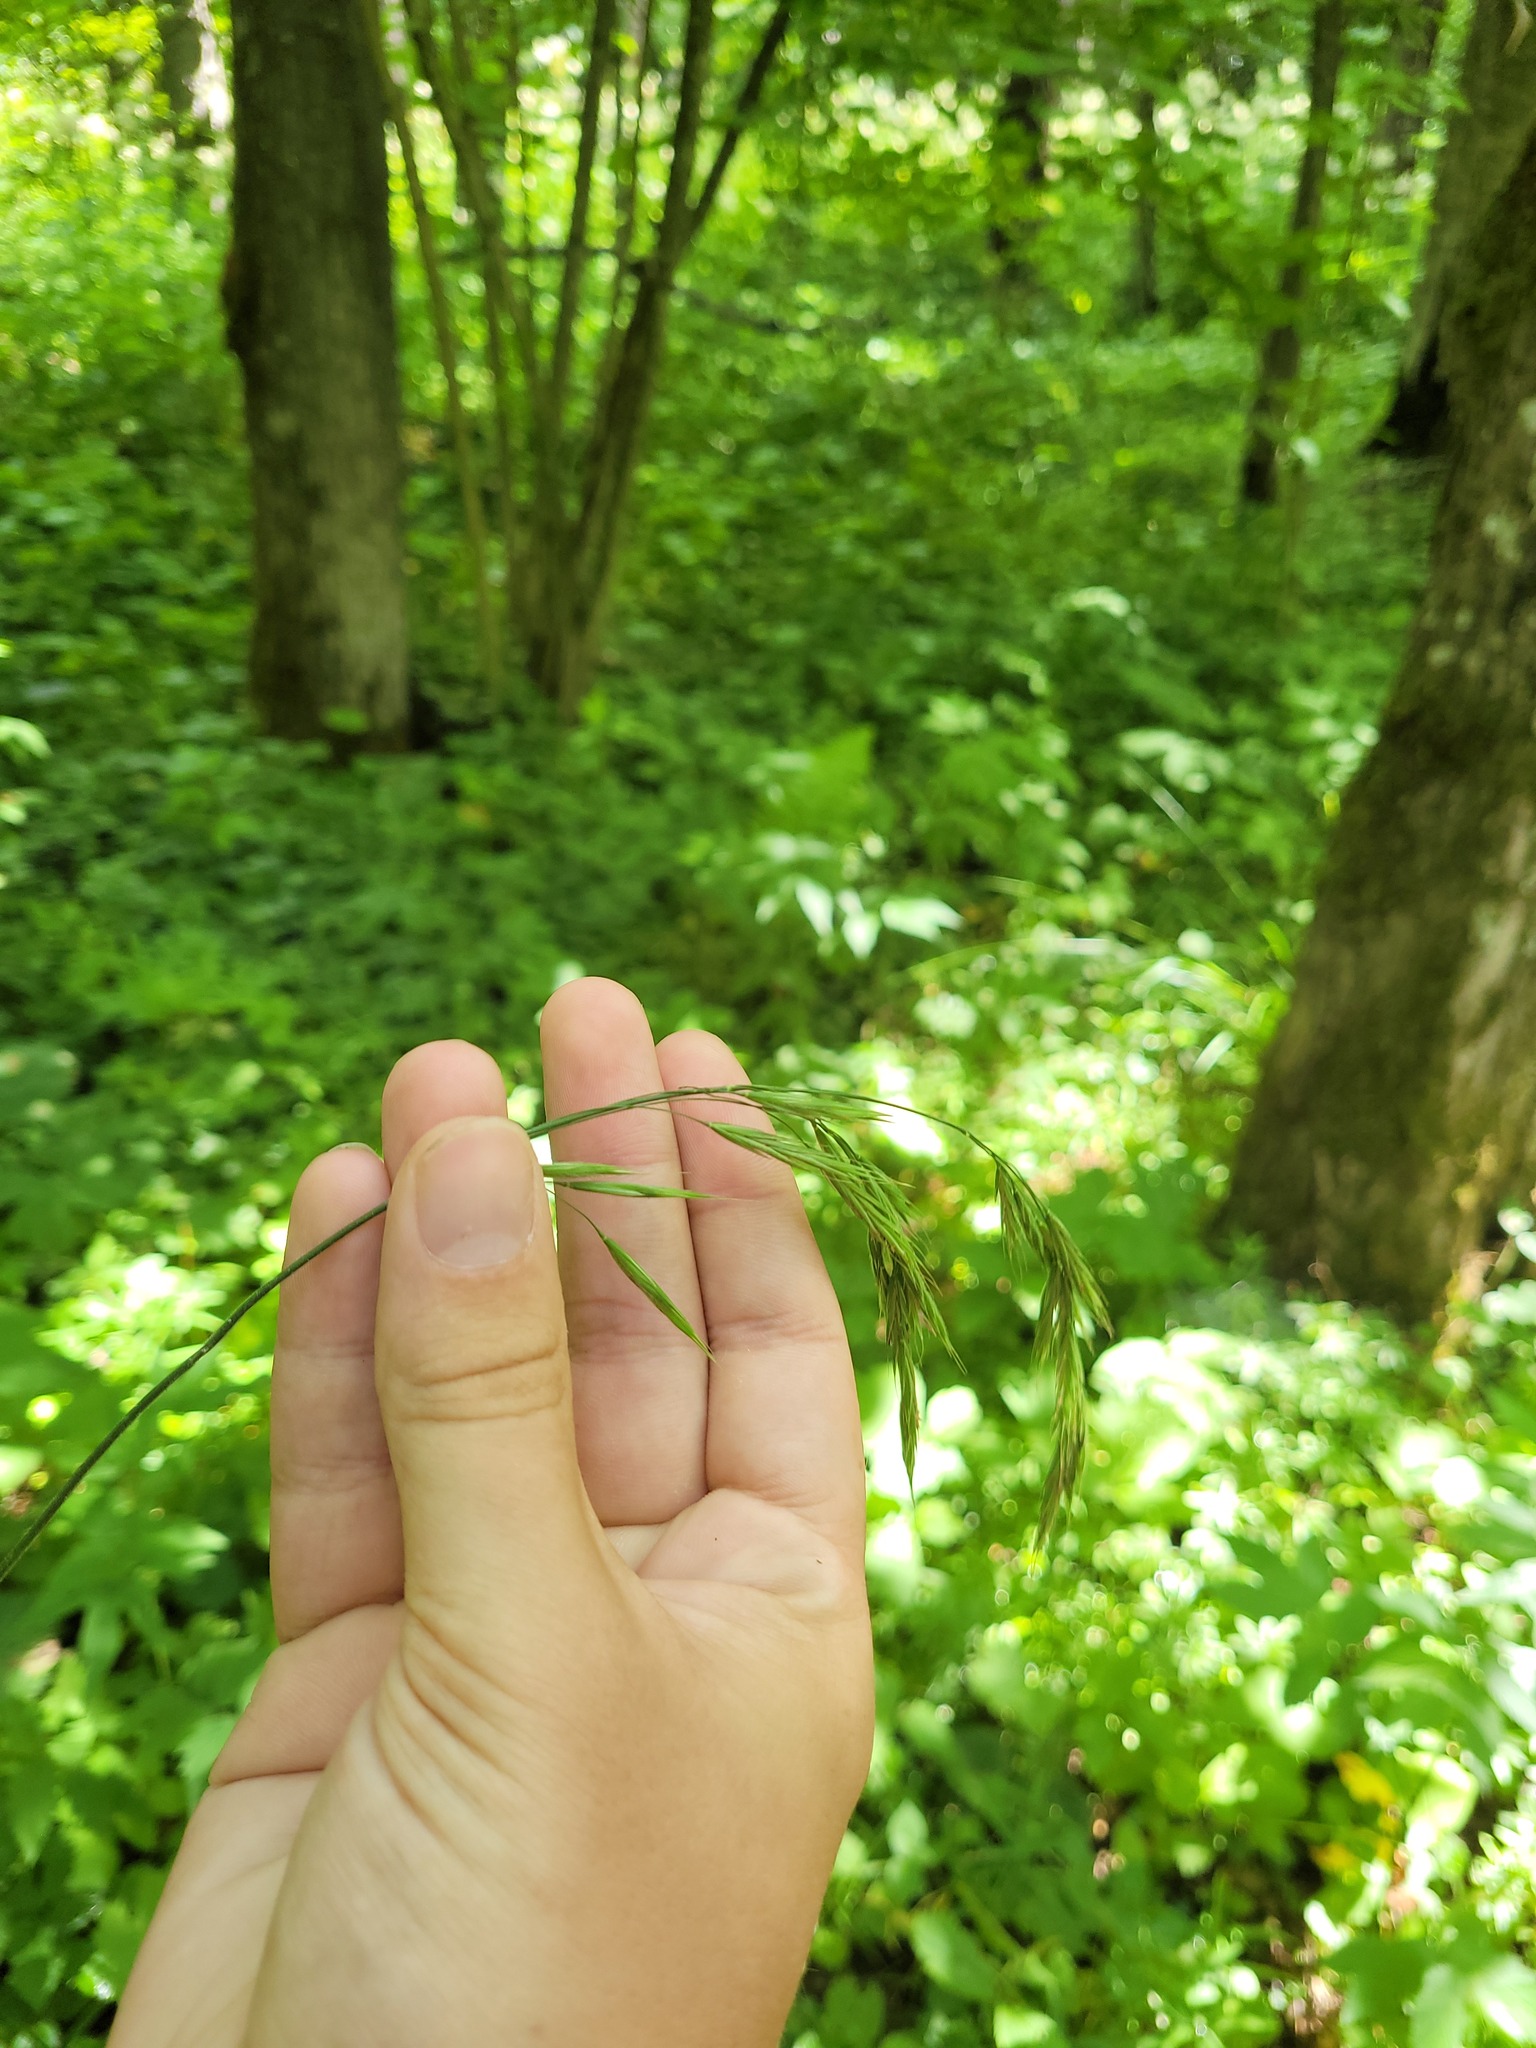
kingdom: Plantae
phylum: Tracheophyta
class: Liliopsida
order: Poales
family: Poaceae
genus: Bromus
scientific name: Bromus benekenii
